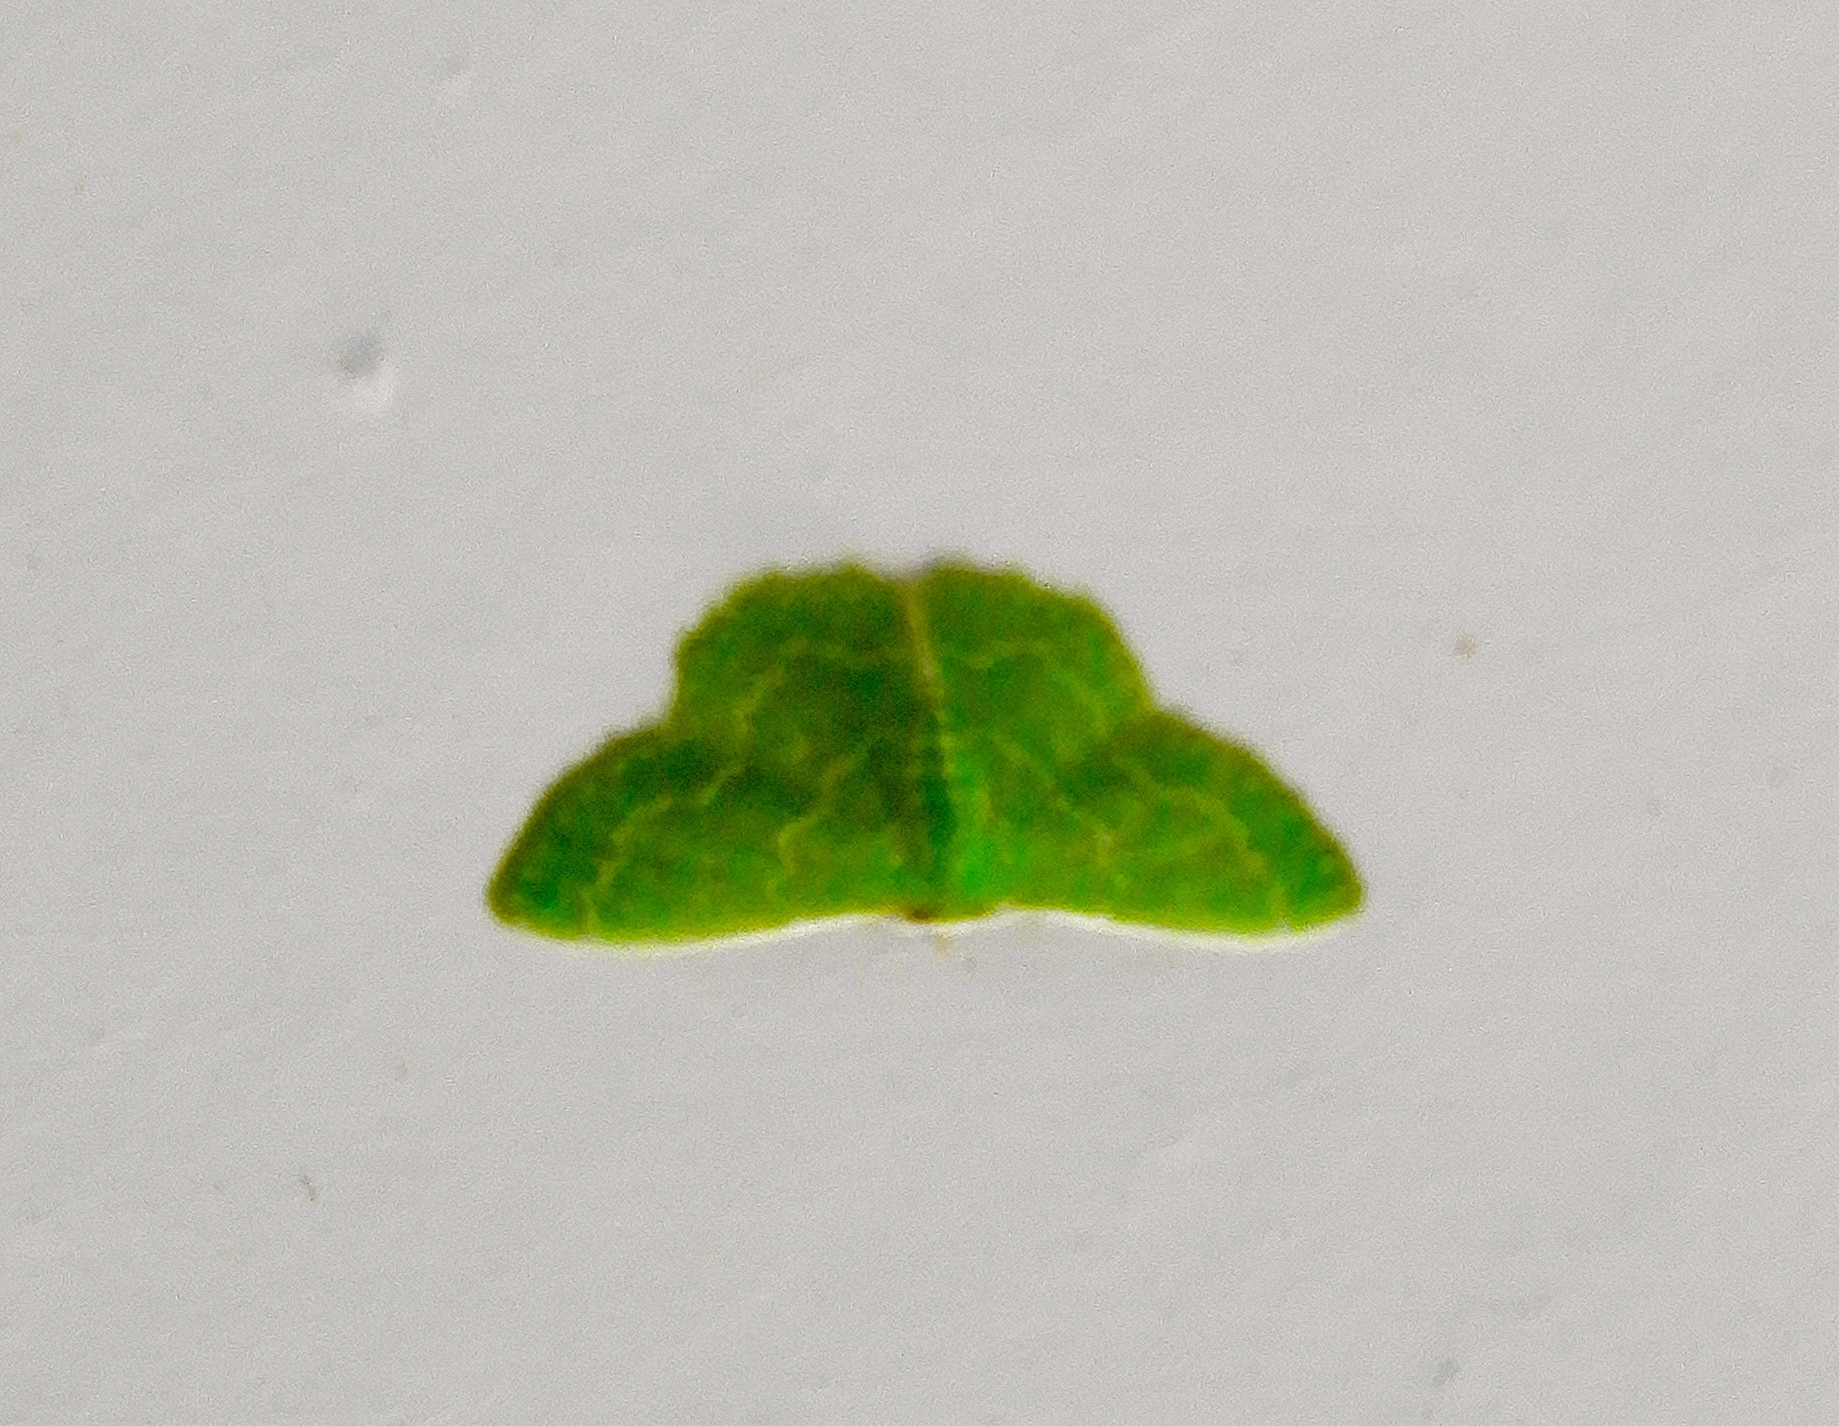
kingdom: Animalia
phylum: Arthropoda
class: Insecta
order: Lepidoptera
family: Geometridae
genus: Synchlora
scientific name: Synchlora
